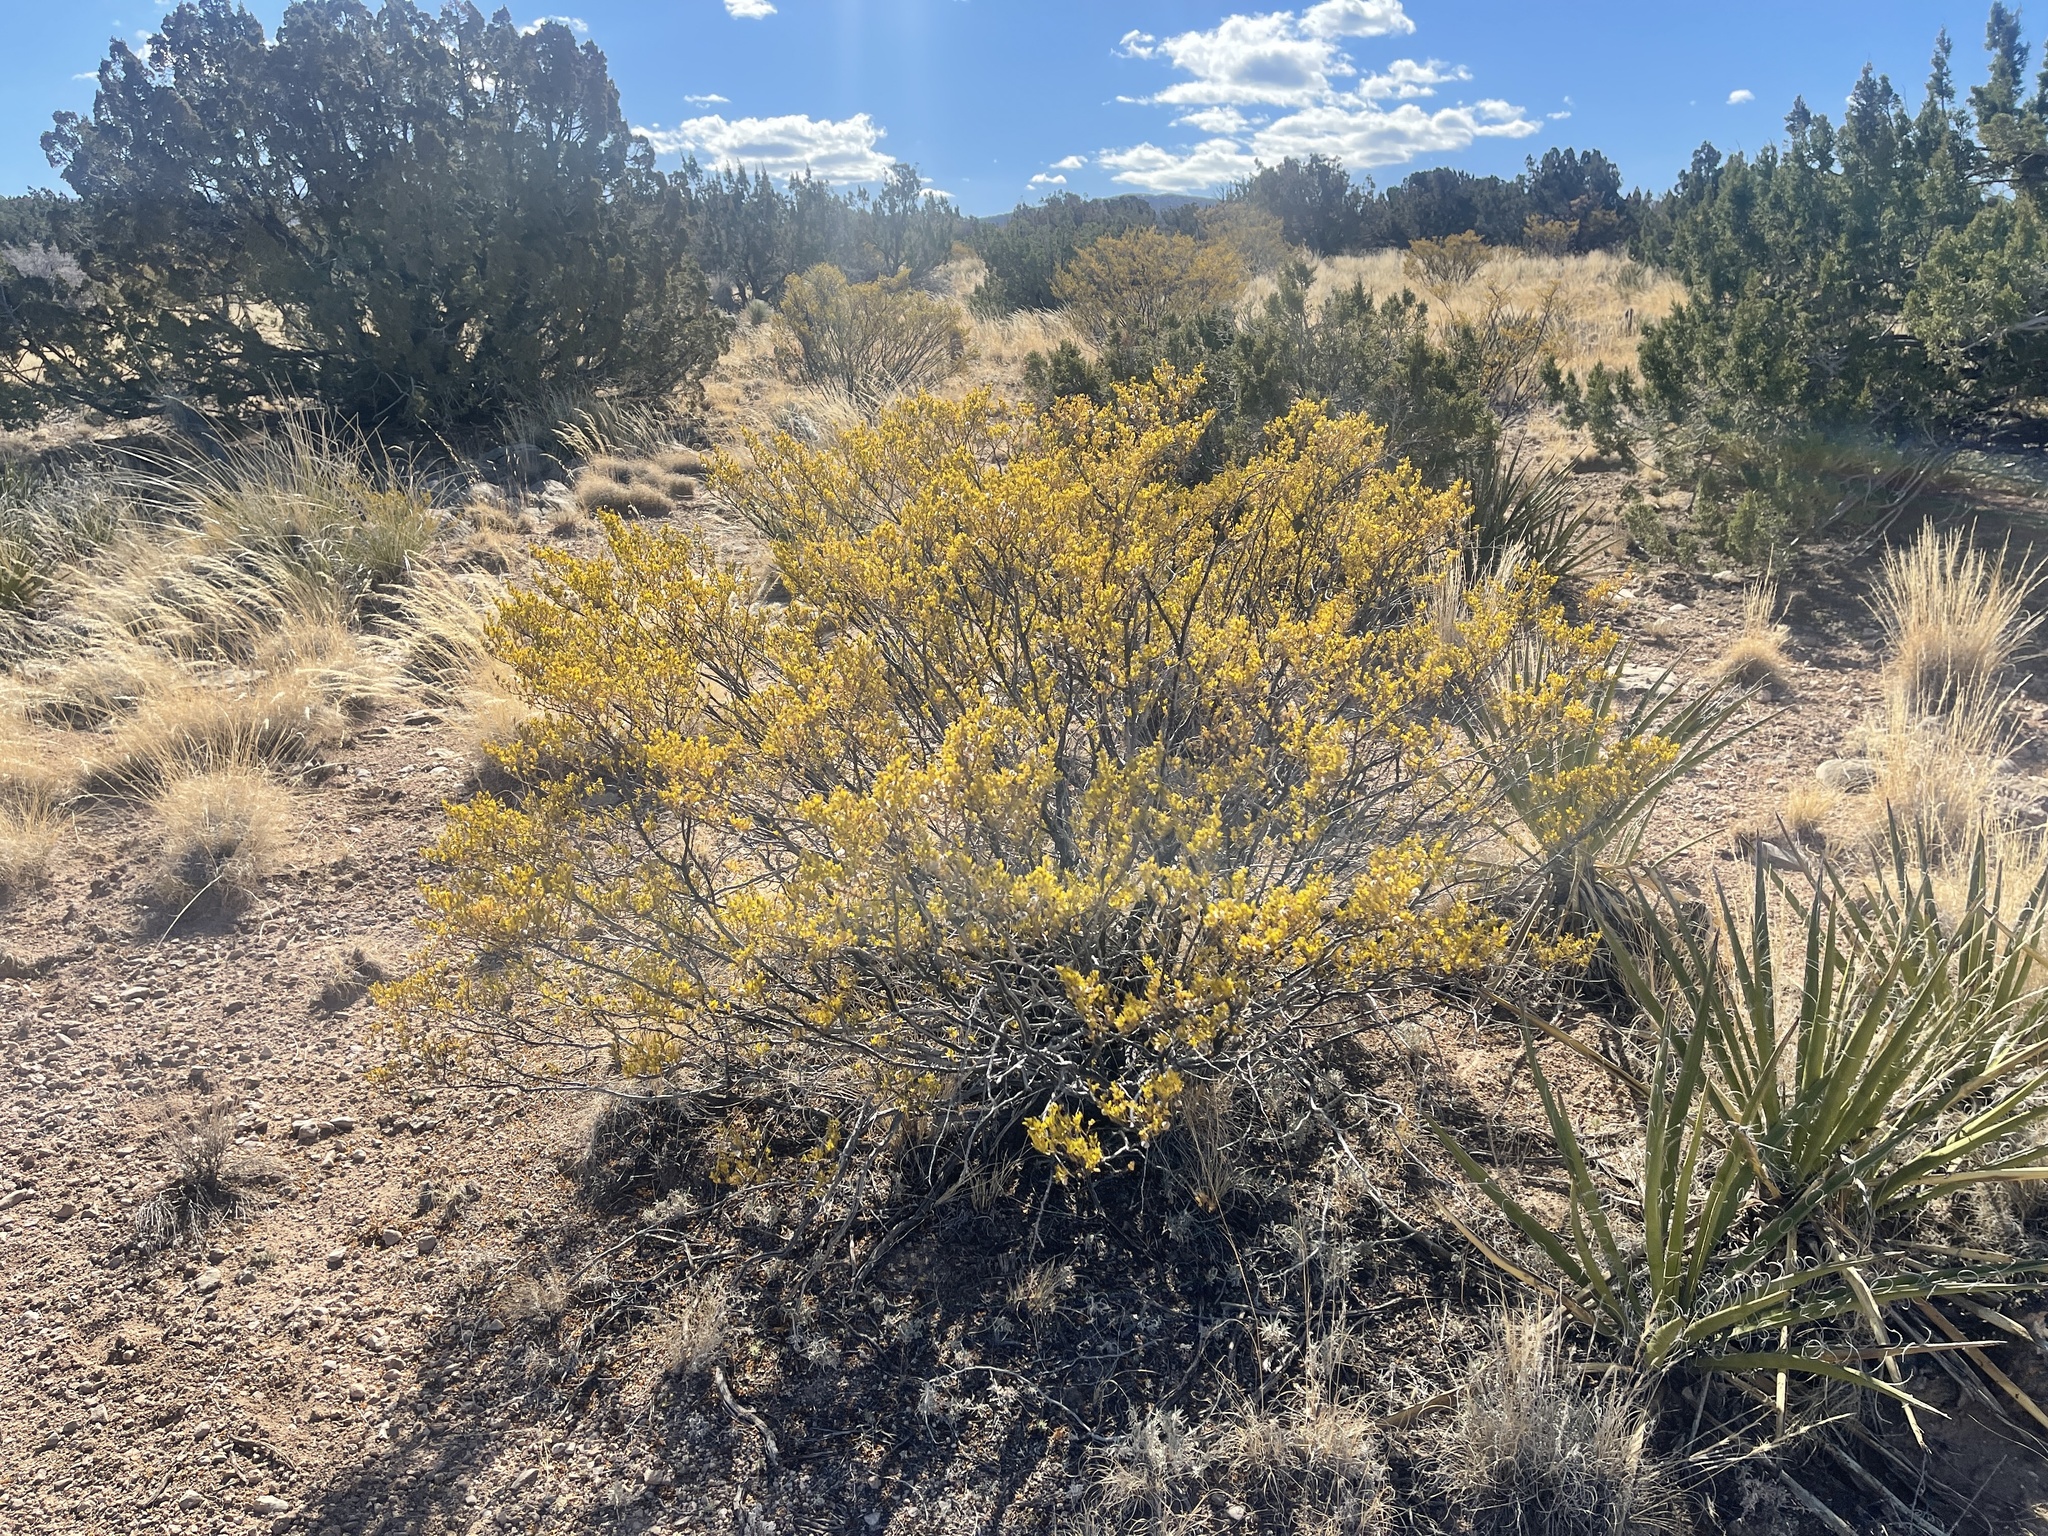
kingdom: Plantae
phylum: Tracheophyta
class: Magnoliopsida
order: Zygophyllales
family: Zygophyllaceae
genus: Larrea
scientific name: Larrea tridentata
